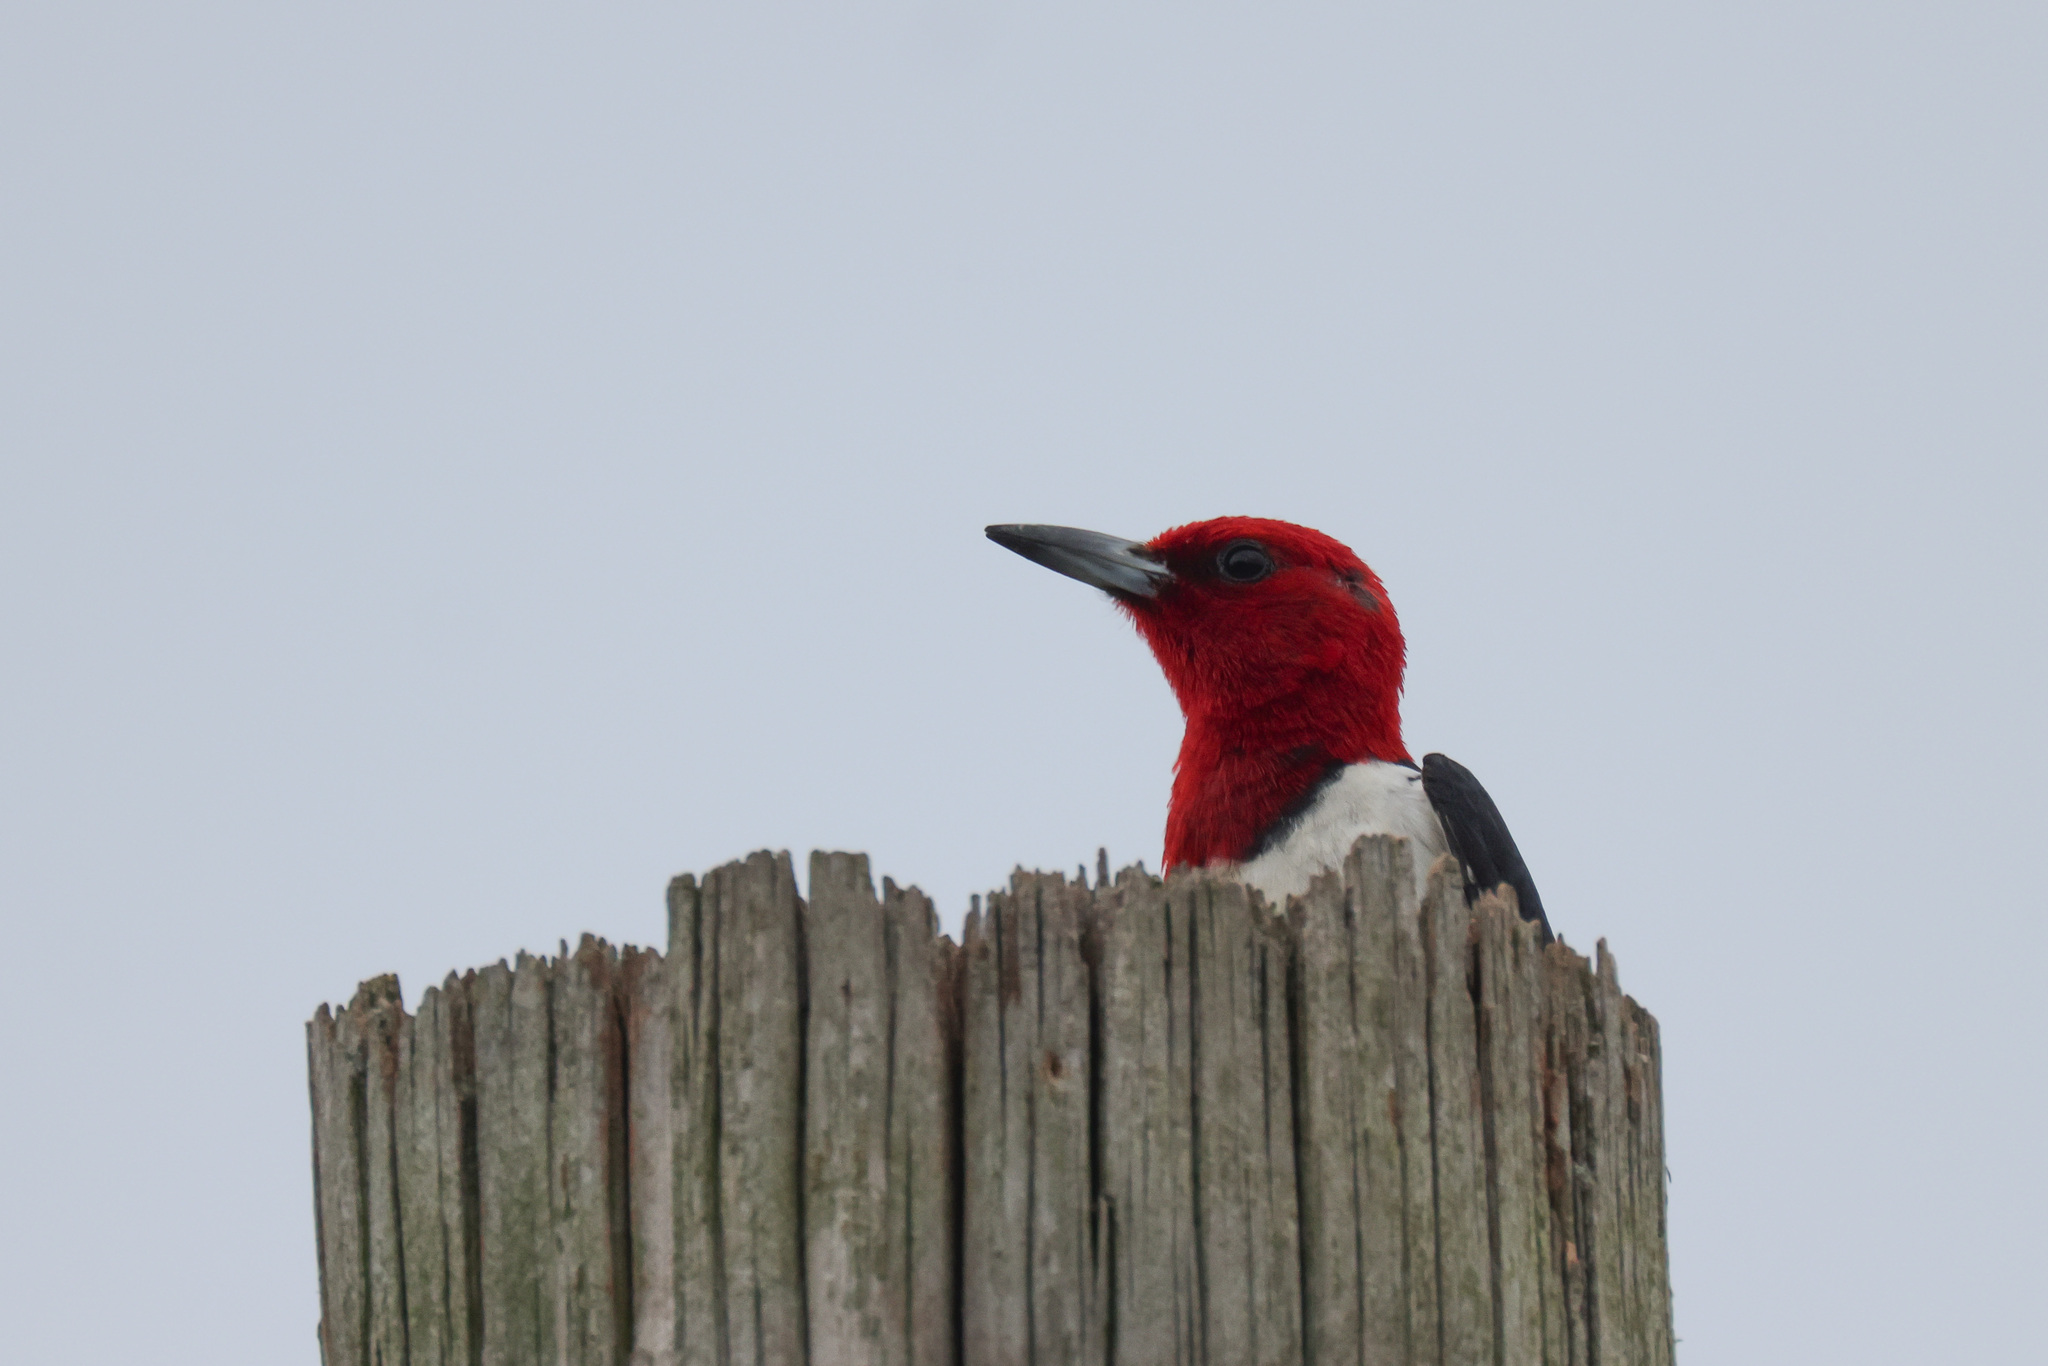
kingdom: Animalia
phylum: Chordata
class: Aves
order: Piciformes
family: Picidae
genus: Melanerpes
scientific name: Melanerpes erythrocephalus
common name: Red-headed woodpecker
